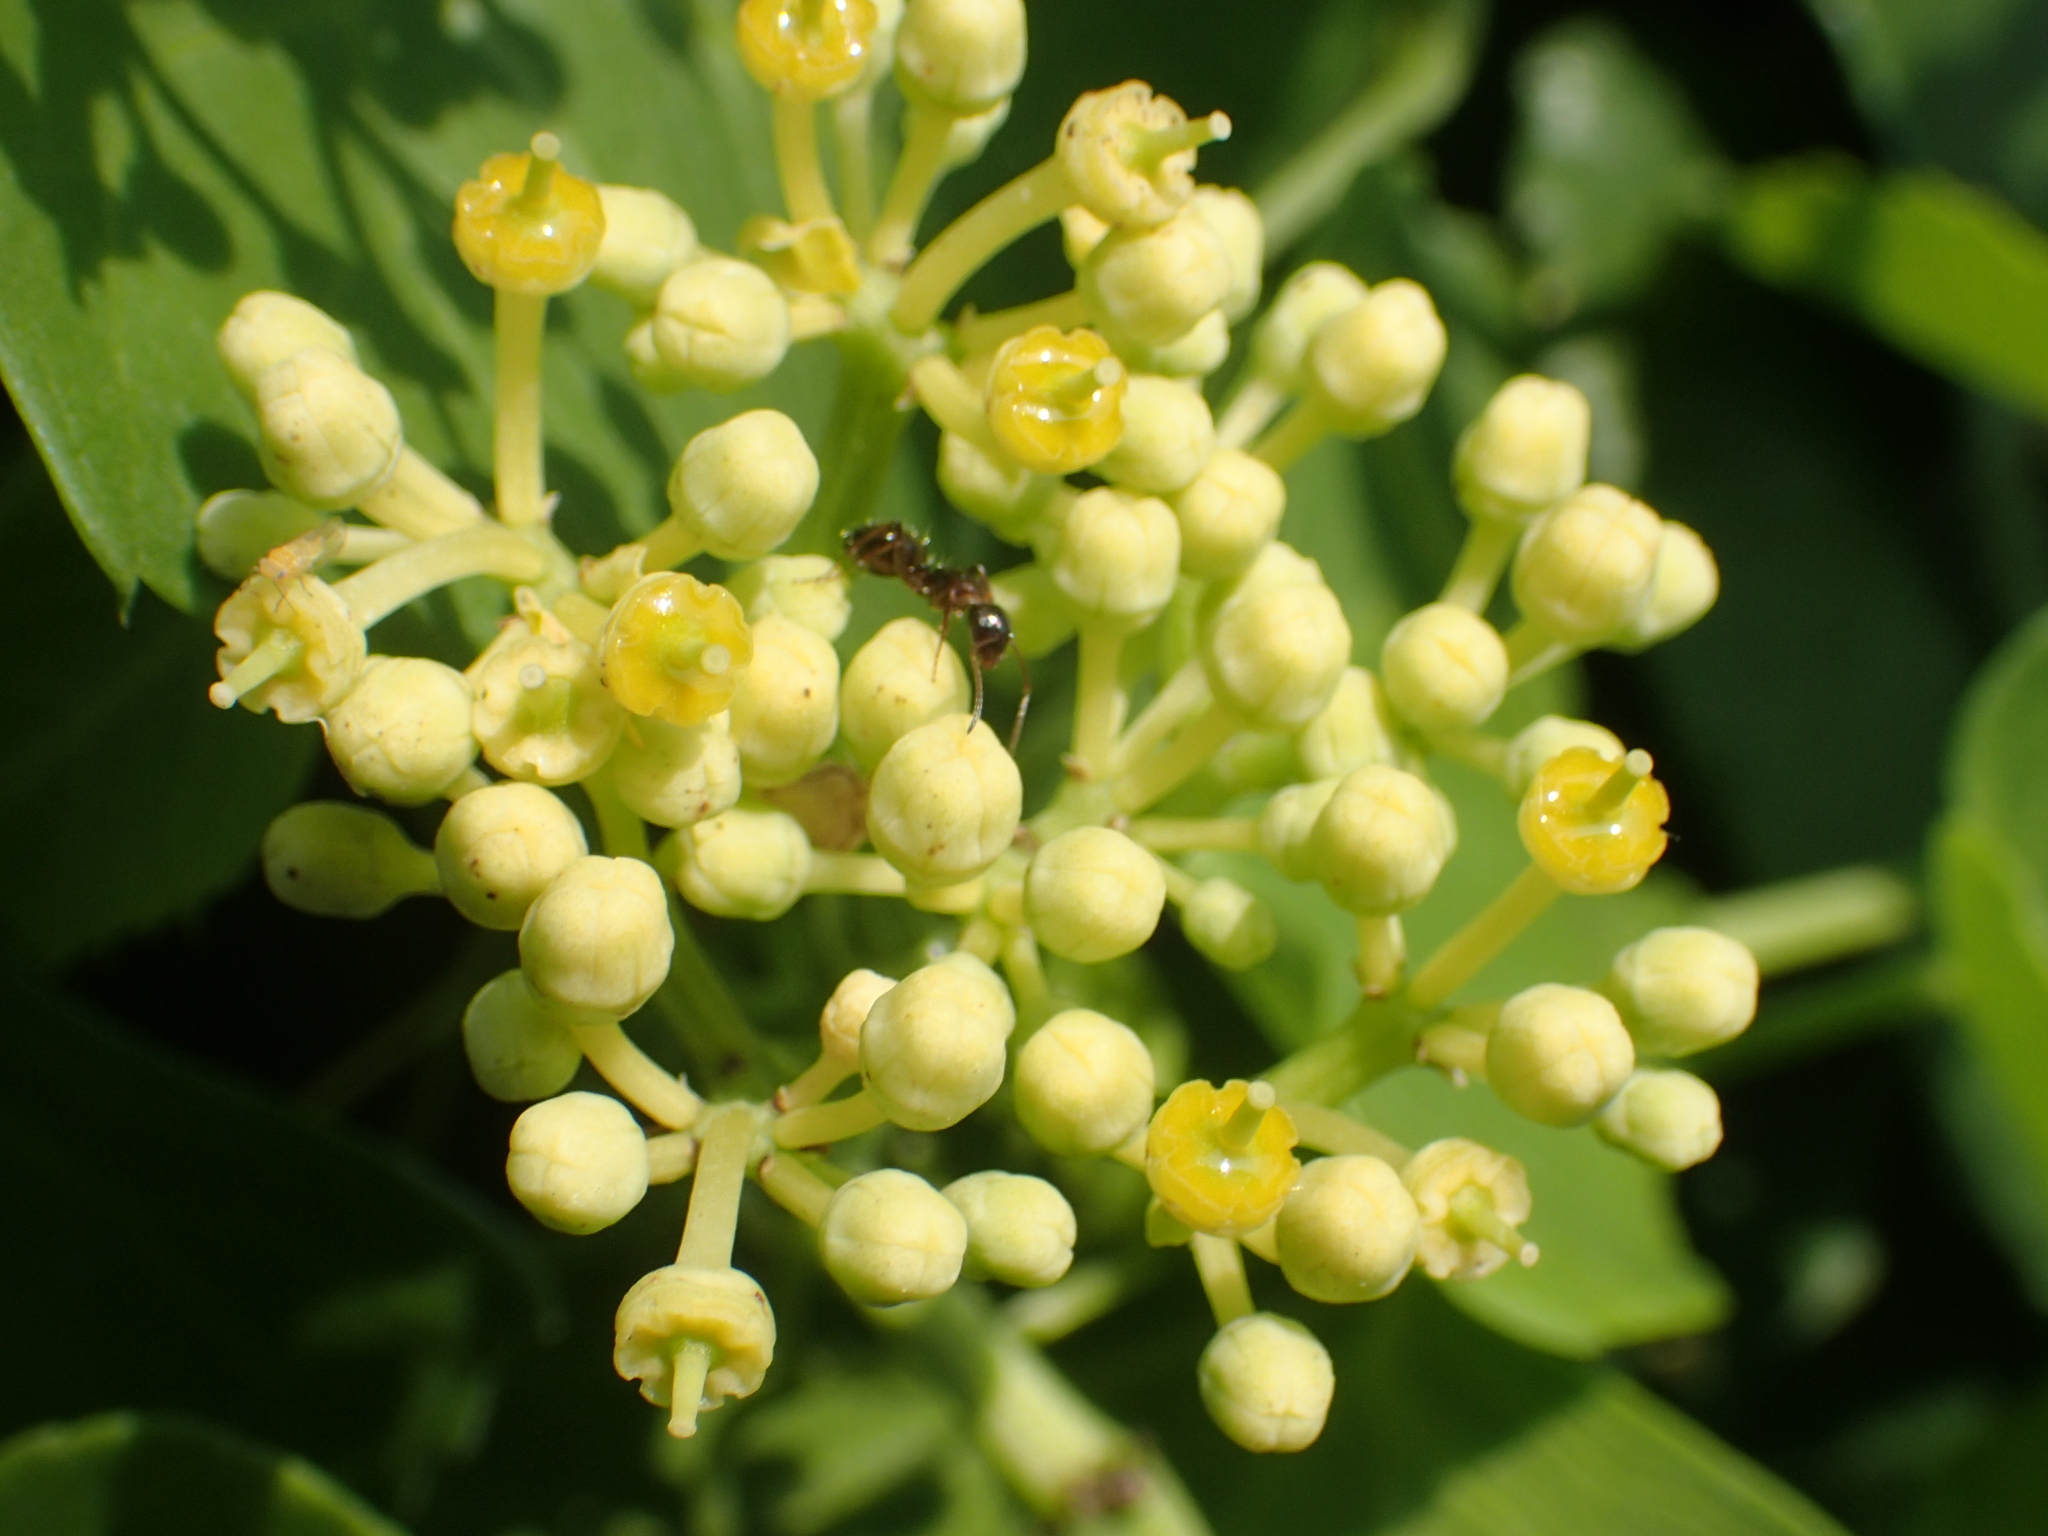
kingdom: Plantae
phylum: Tracheophyta
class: Magnoliopsida
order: Vitales
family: Vitaceae
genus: Cissus
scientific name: Cissus verticillata
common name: Princess vine
